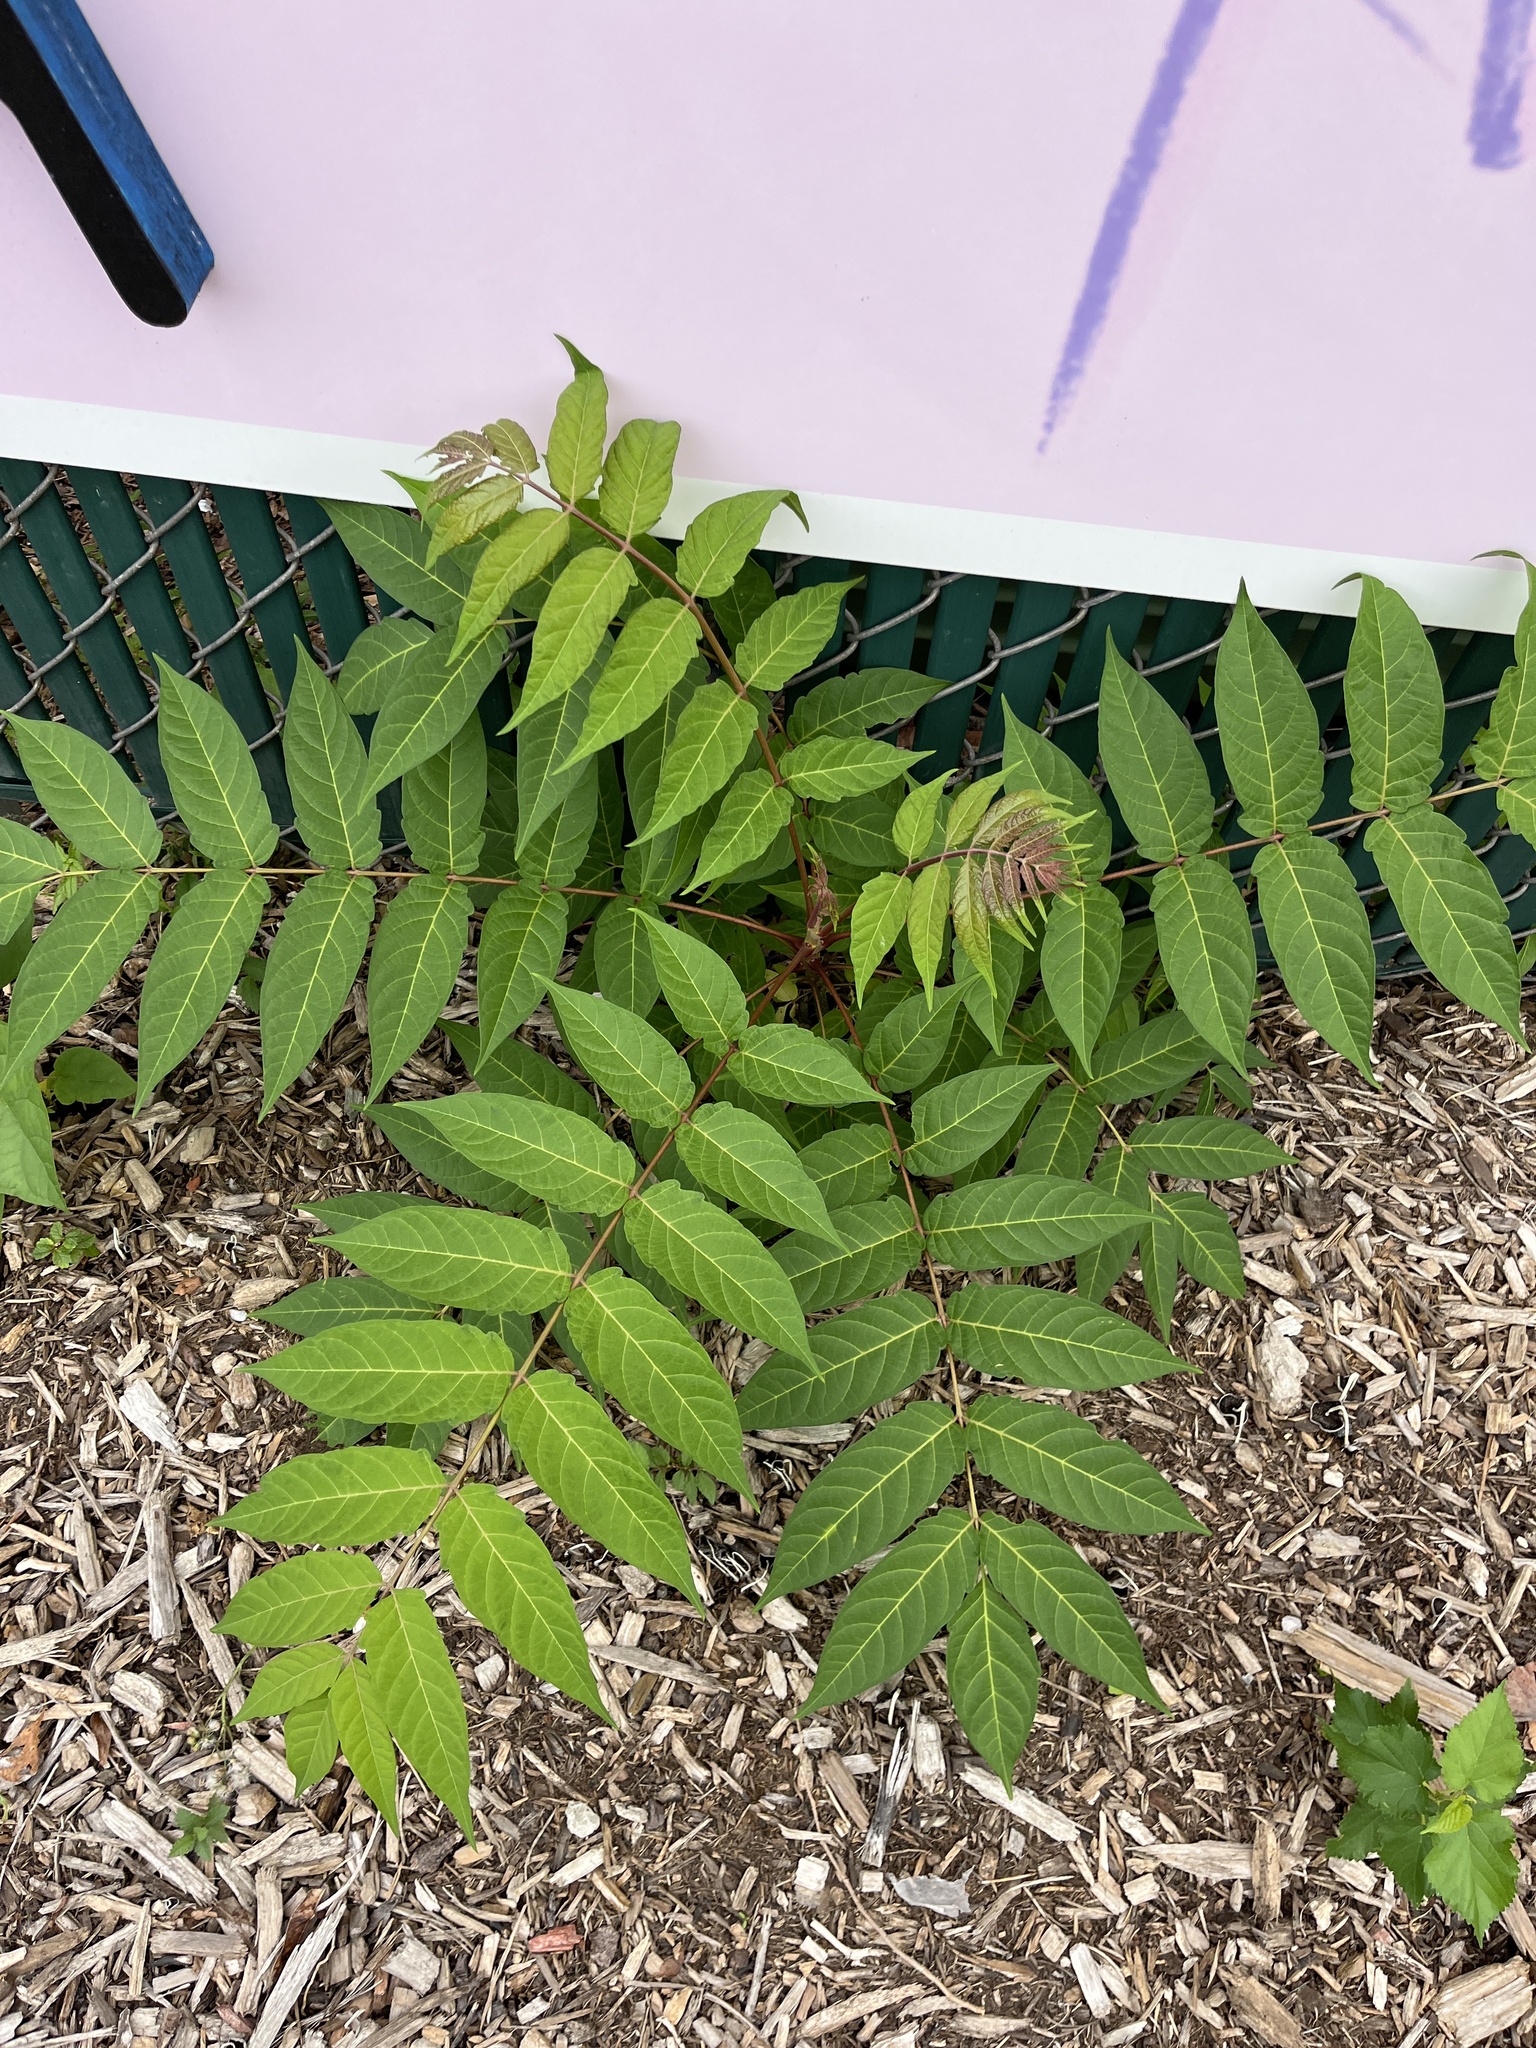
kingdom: Plantae
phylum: Tracheophyta
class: Magnoliopsida
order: Sapindales
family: Simaroubaceae
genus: Ailanthus
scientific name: Ailanthus altissima
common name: Tree-of-heaven
